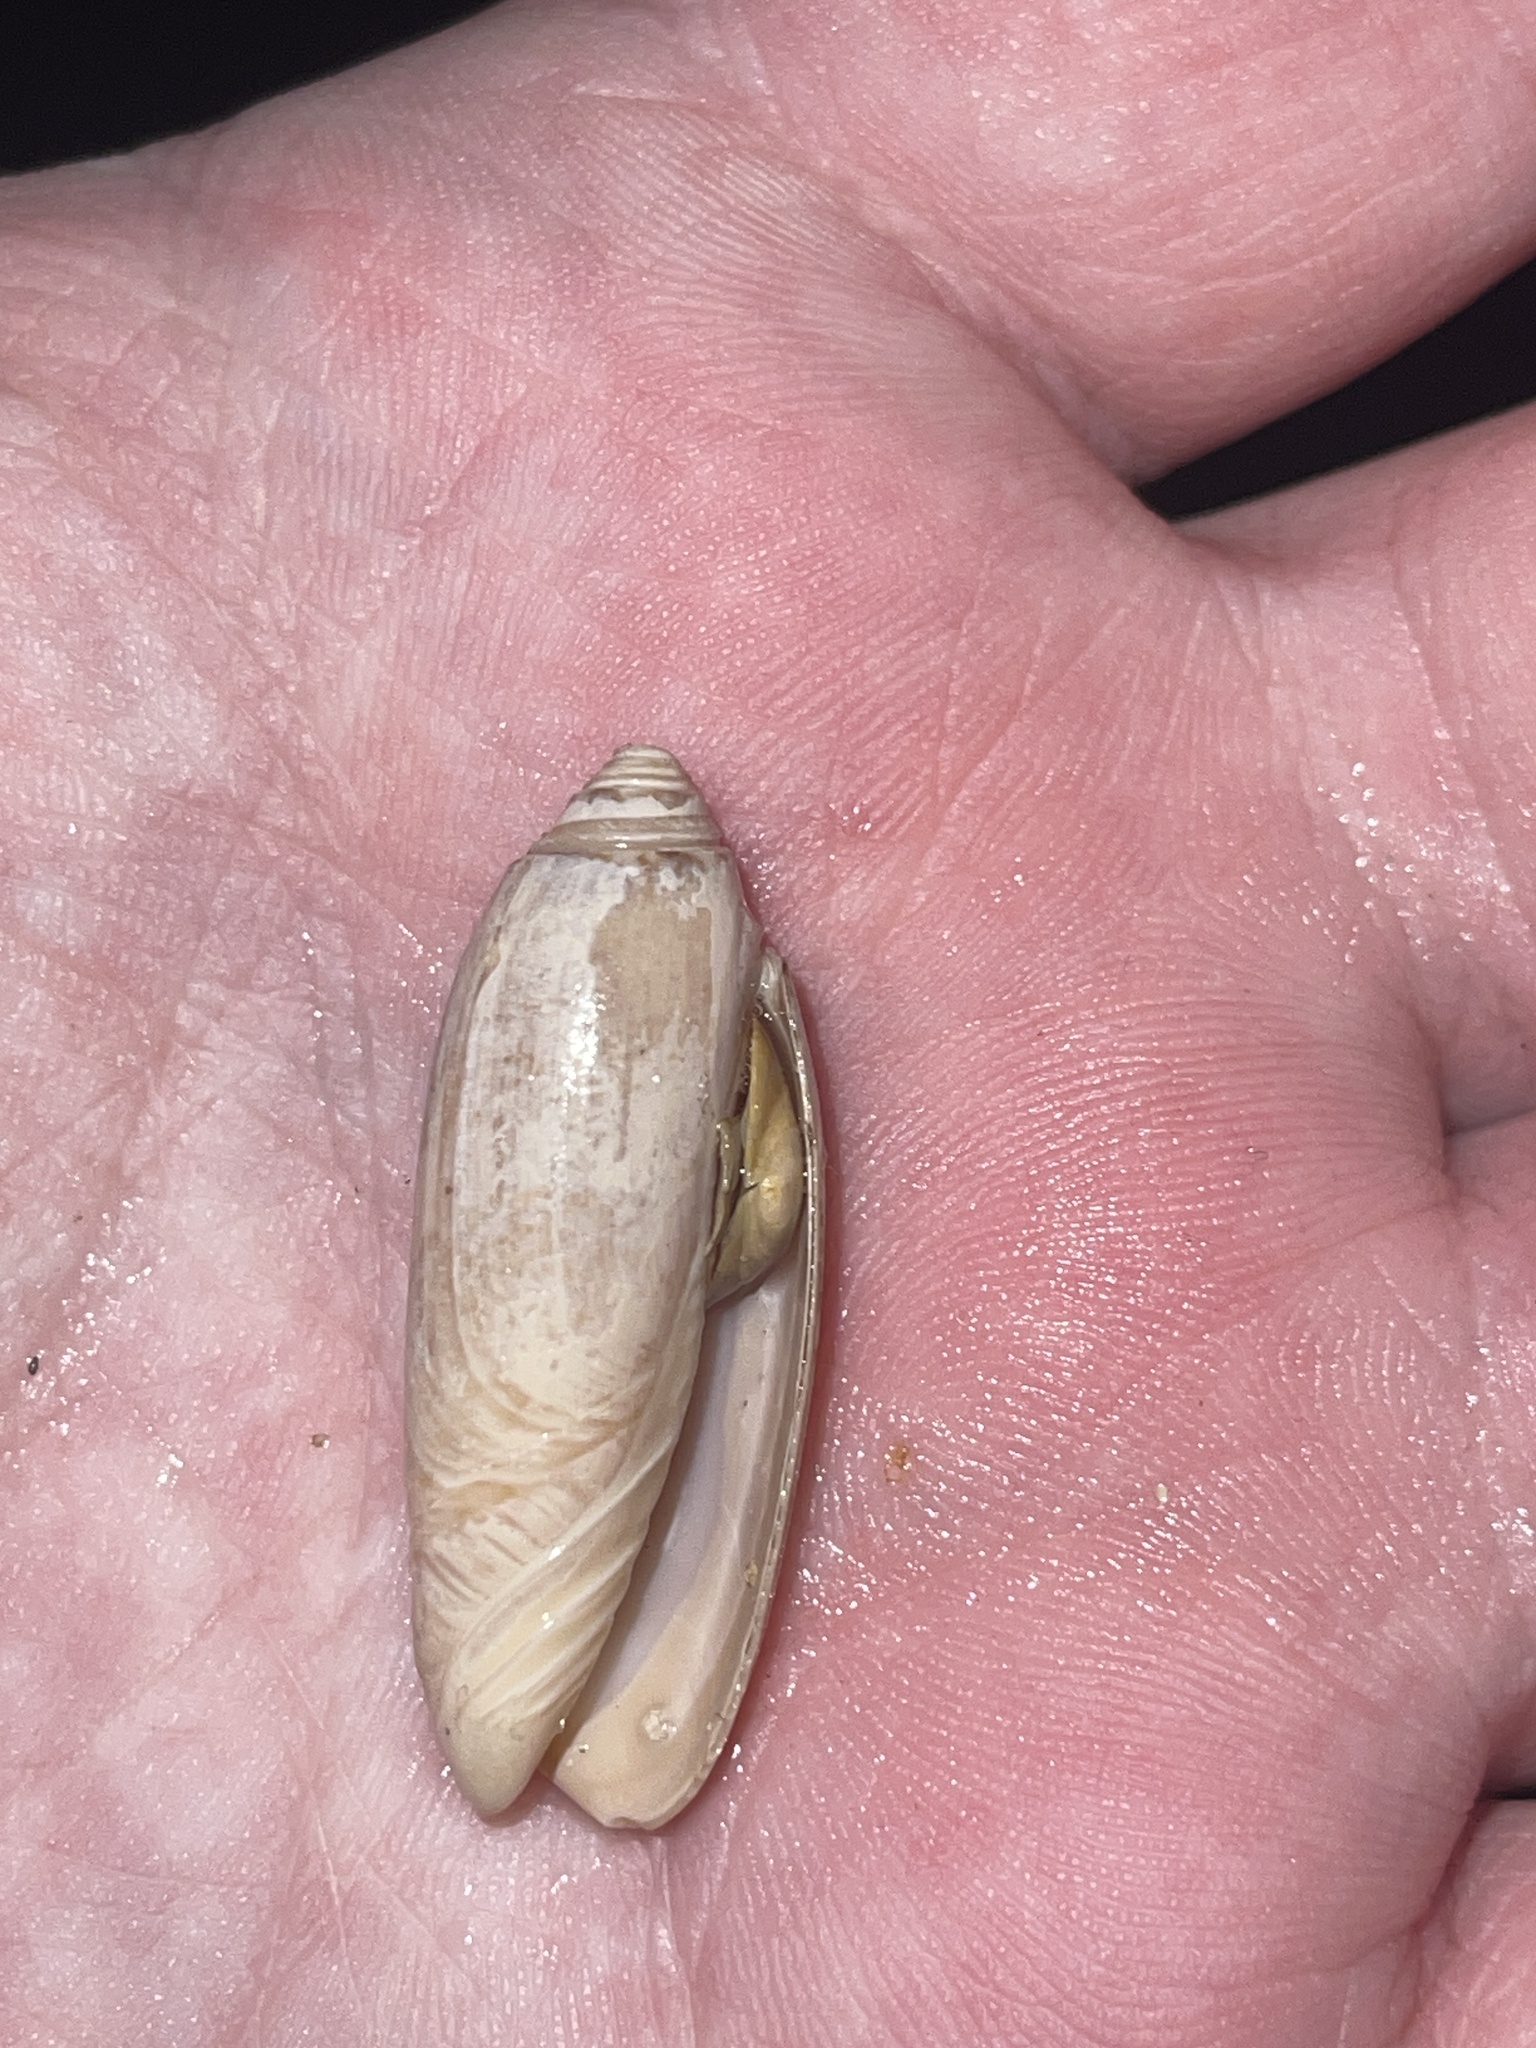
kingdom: Animalia
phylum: Mollusca
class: Gastropoda
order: Neogastropoda
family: Olividae
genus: Oliva
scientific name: Oliva sayana
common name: Lettered olive
